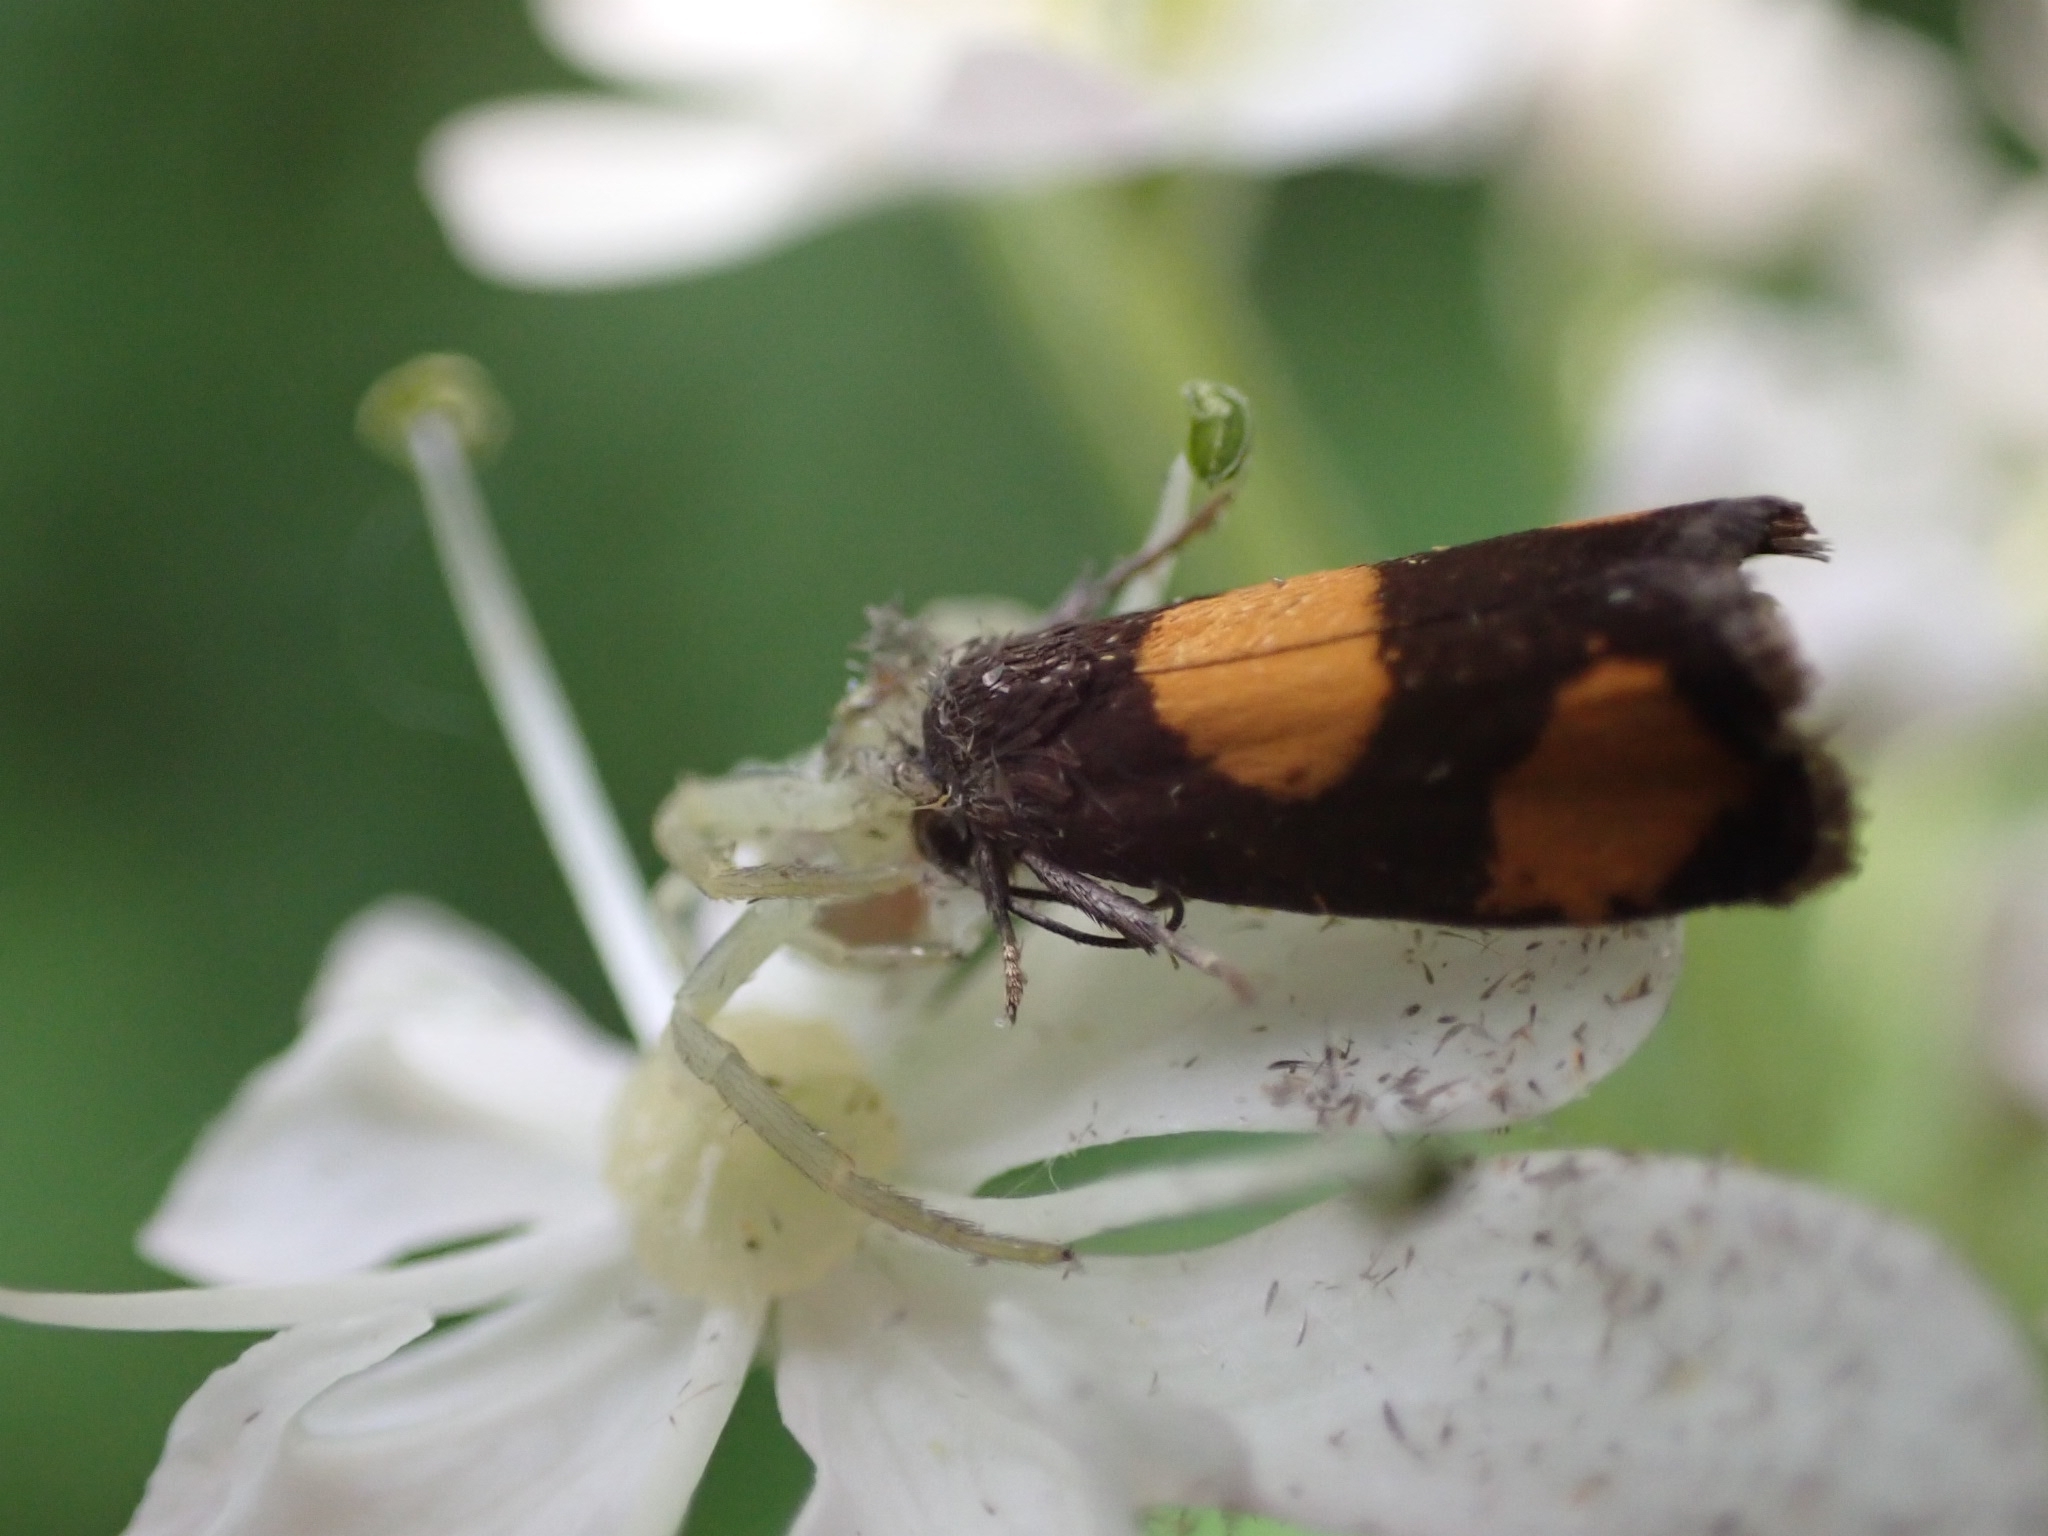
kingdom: Animalia
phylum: Arthropoda
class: Insecta
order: Lepidoptera
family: Tortricidae
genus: Pammene
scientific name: Pammene aurana
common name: Orange-spot piercer
